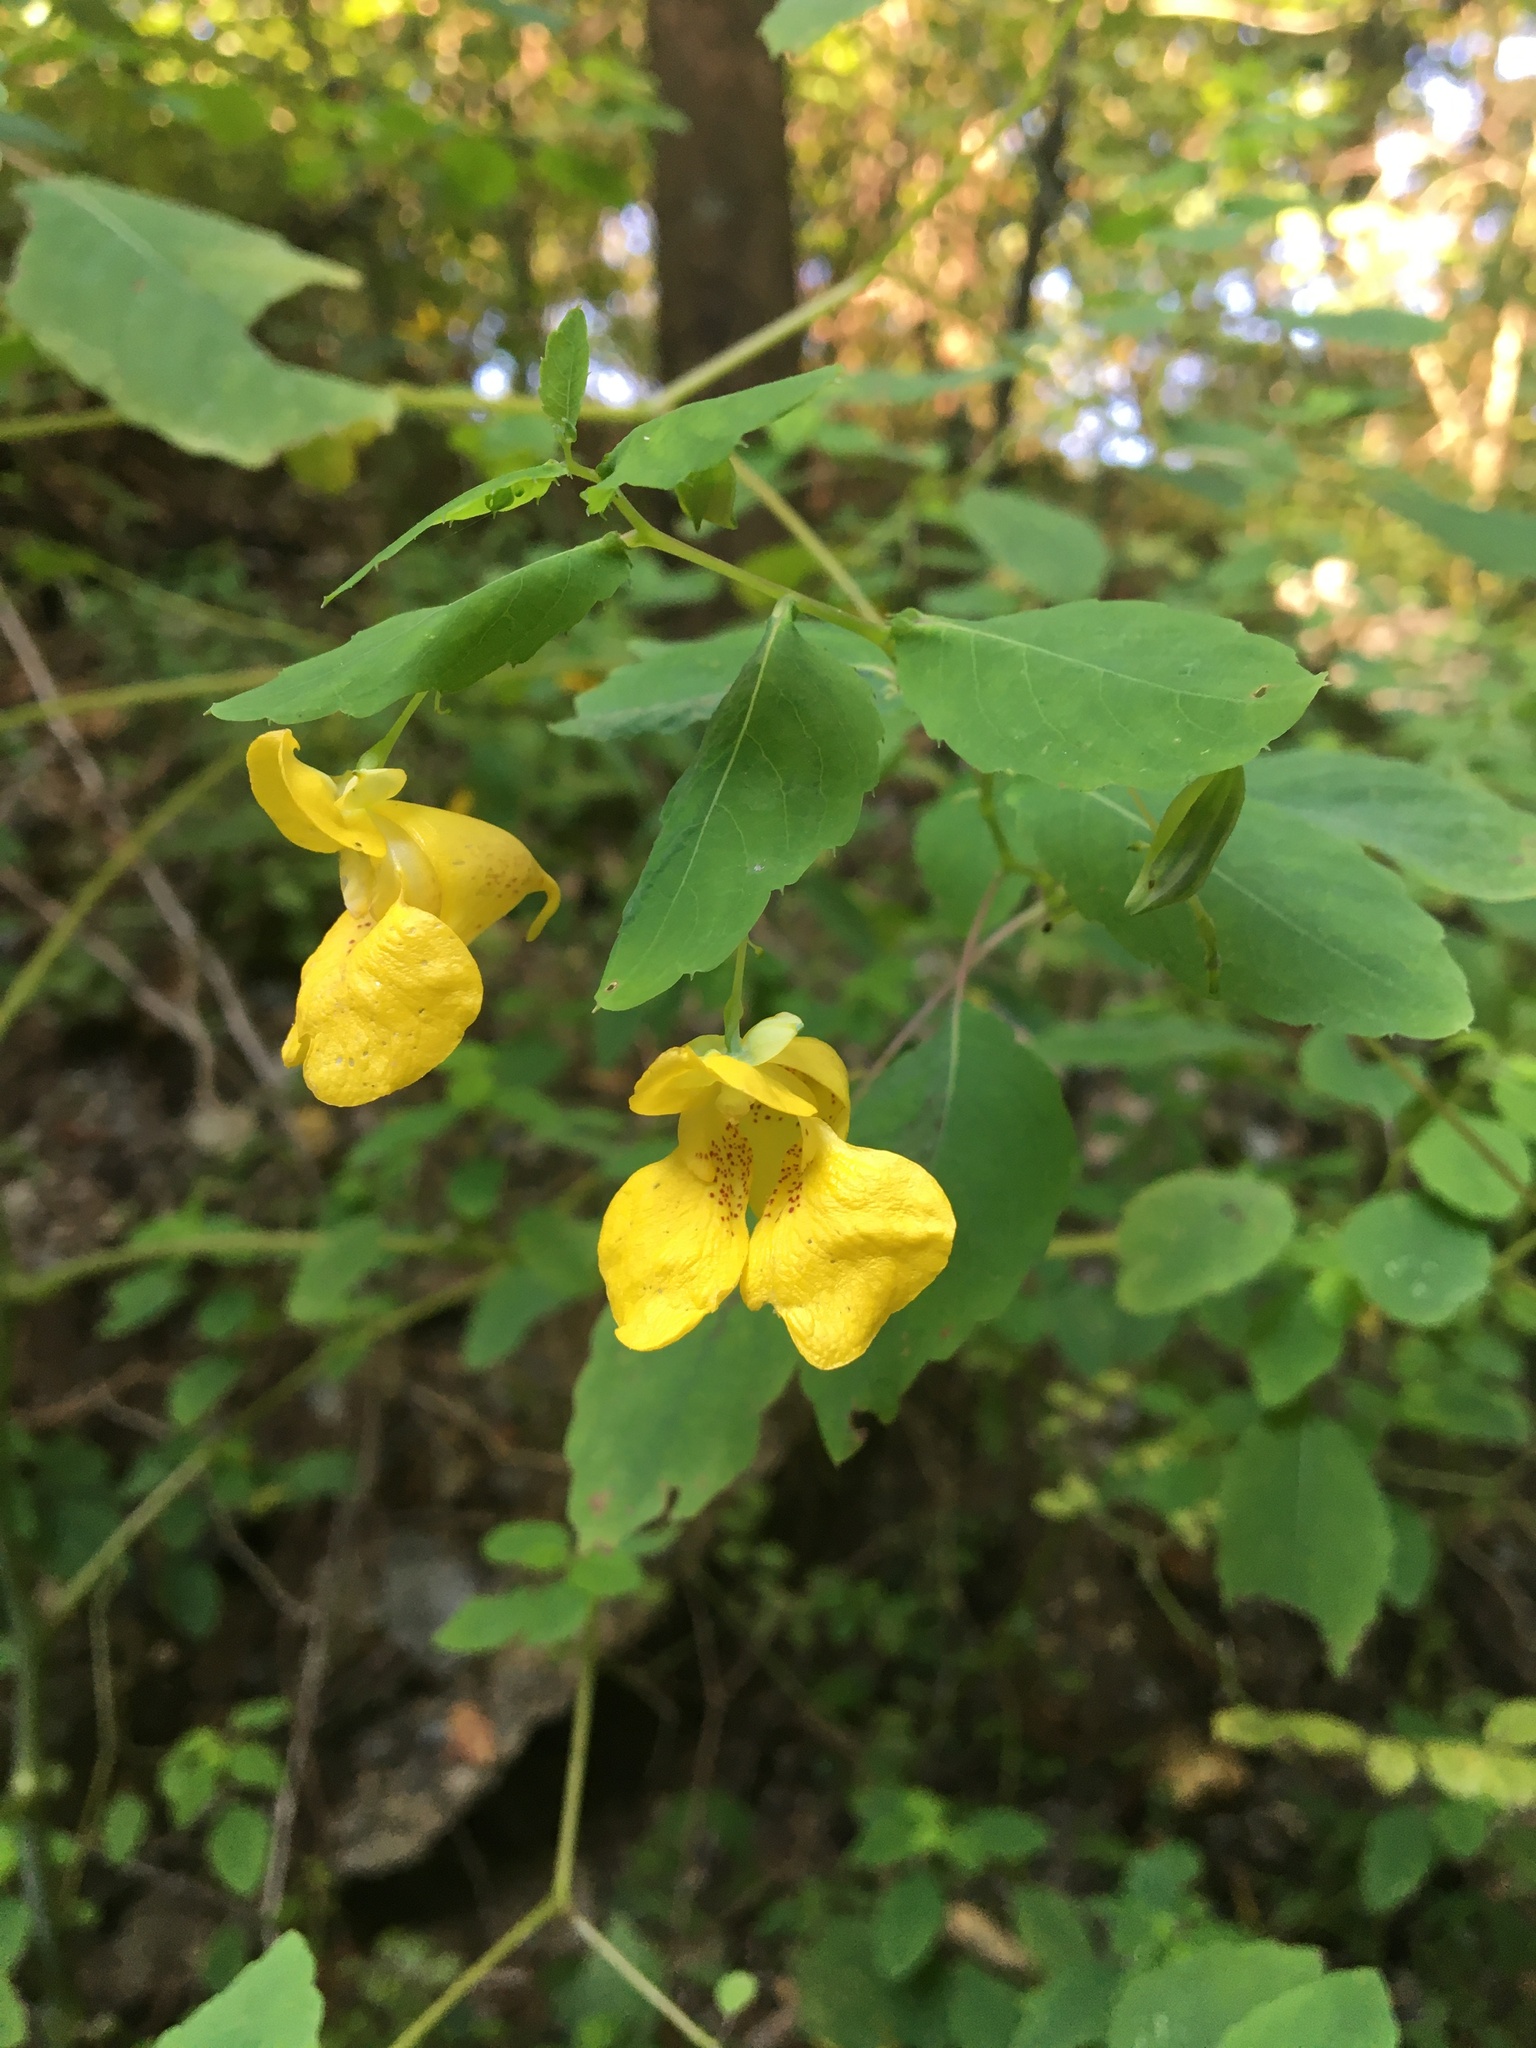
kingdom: Plantae
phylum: Tracheophyta
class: Magnoliopsida
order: Ericales
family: Balsaminaceae
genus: Impatiens
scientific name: Impatiens pallida
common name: Pale snapweed
